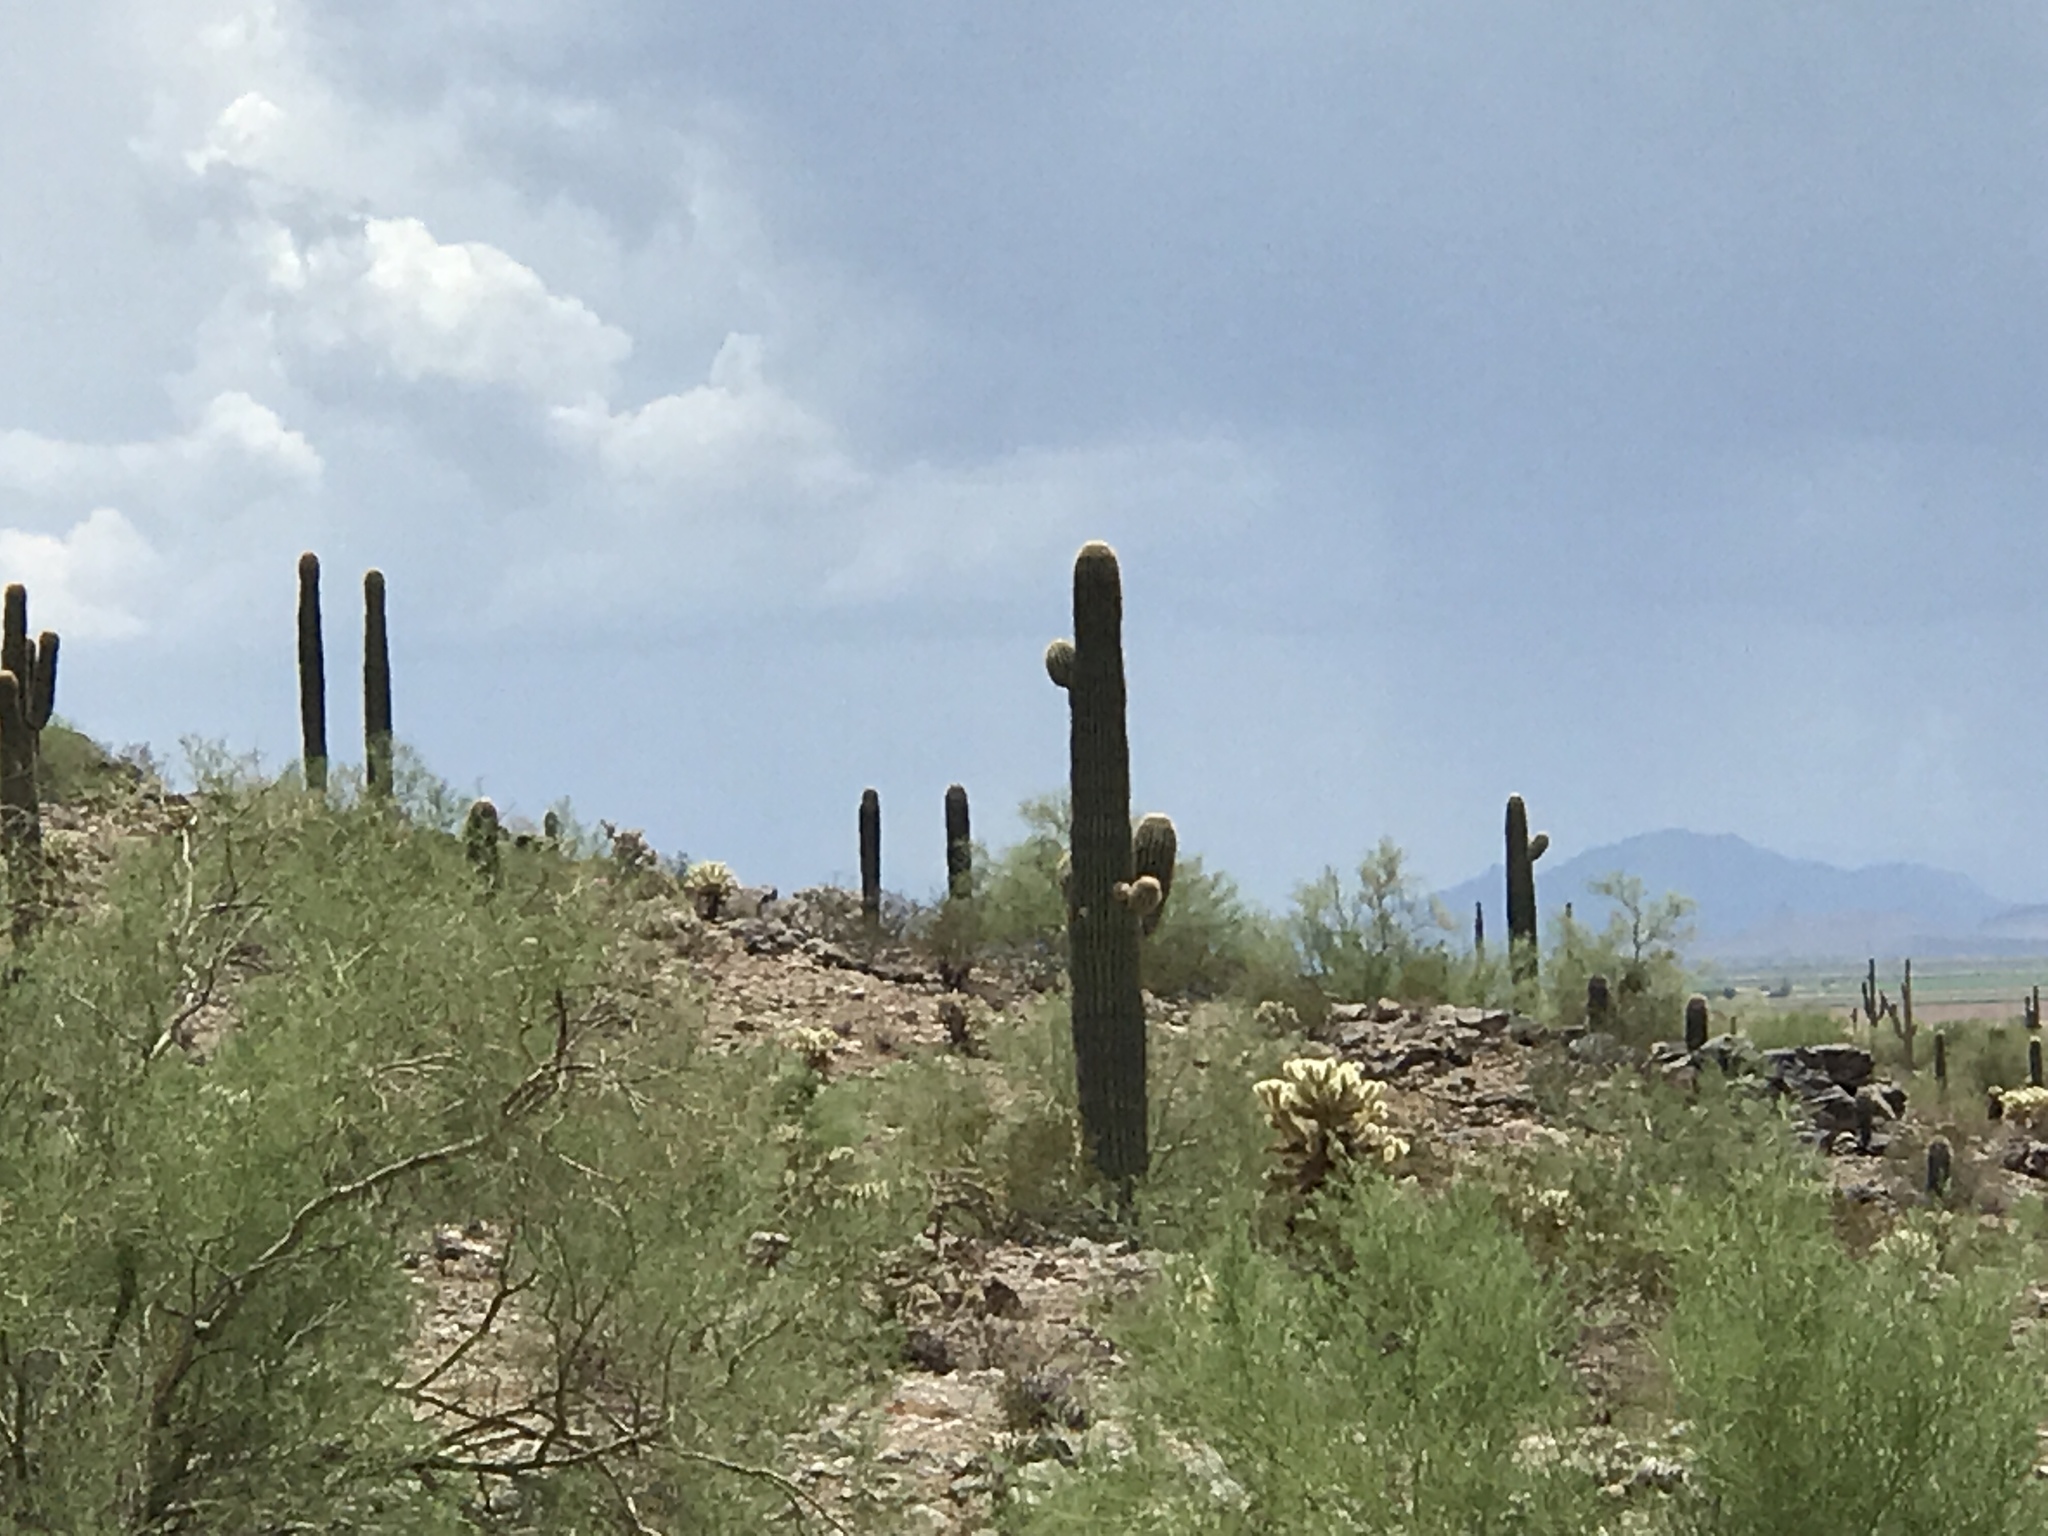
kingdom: Plantae
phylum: Tracheophyta
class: Magnoliopsida
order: Caryophyllales
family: Cactaceae
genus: Carnegiea
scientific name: Carnegiea gigantea
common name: Saguaro
